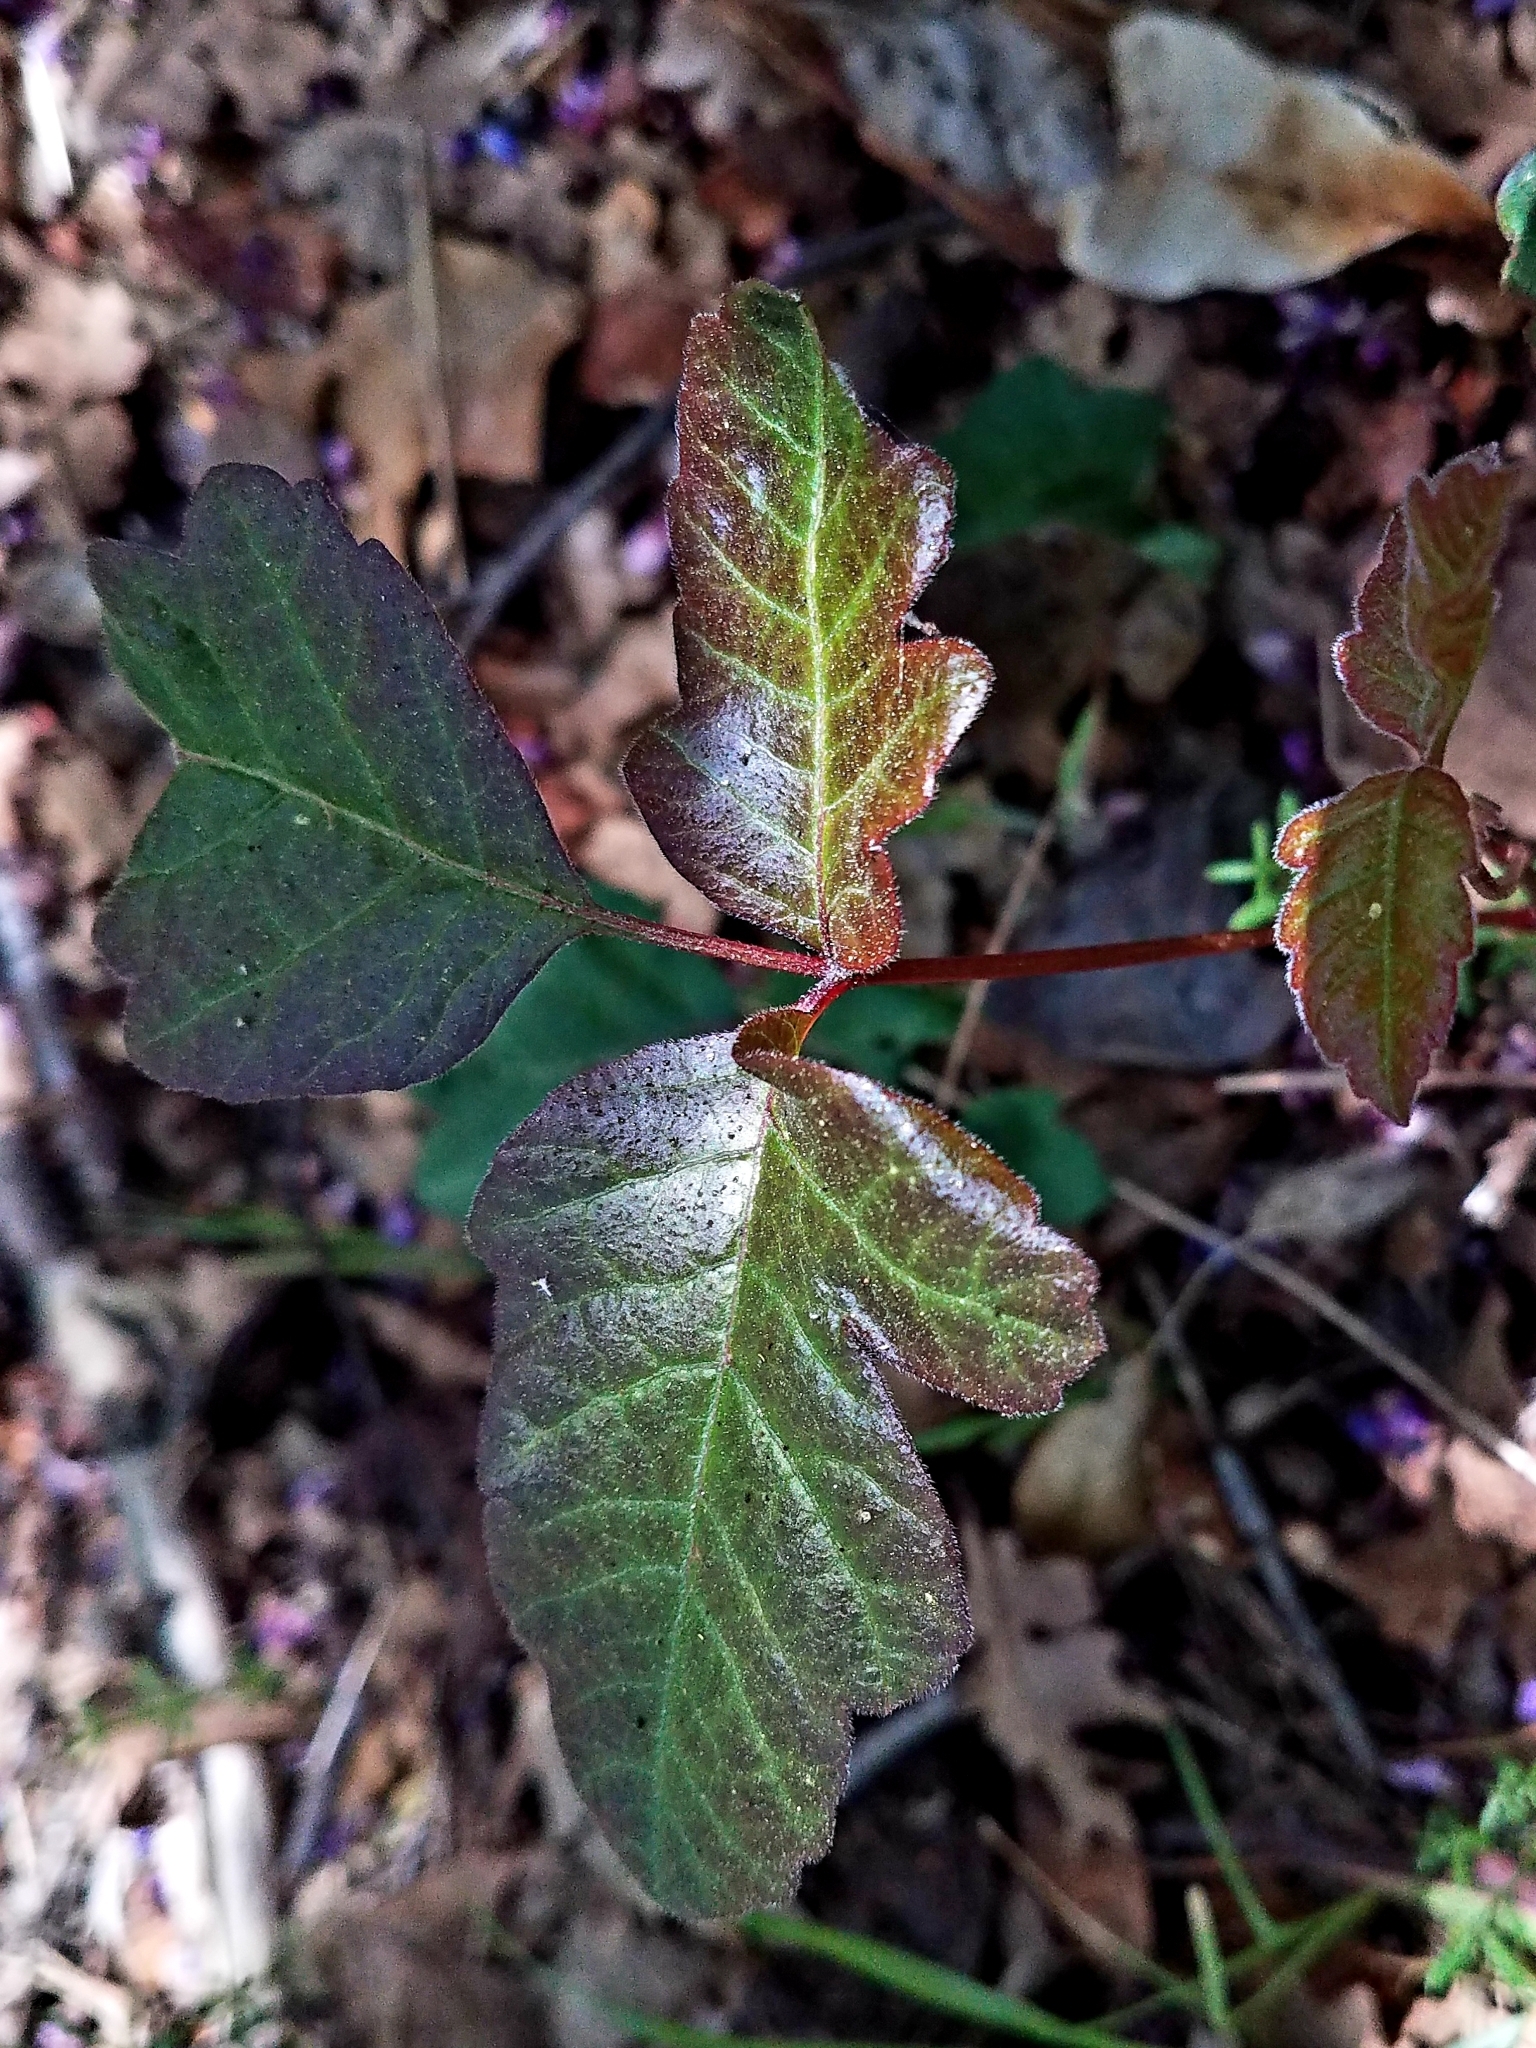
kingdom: Plantae
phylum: Tracheophyta
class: Magnoliopsida
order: Sapindales
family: Anacardiaceae
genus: Toxicodendron
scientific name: Toxicodendron diversilobum
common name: Pacific poison-oak
